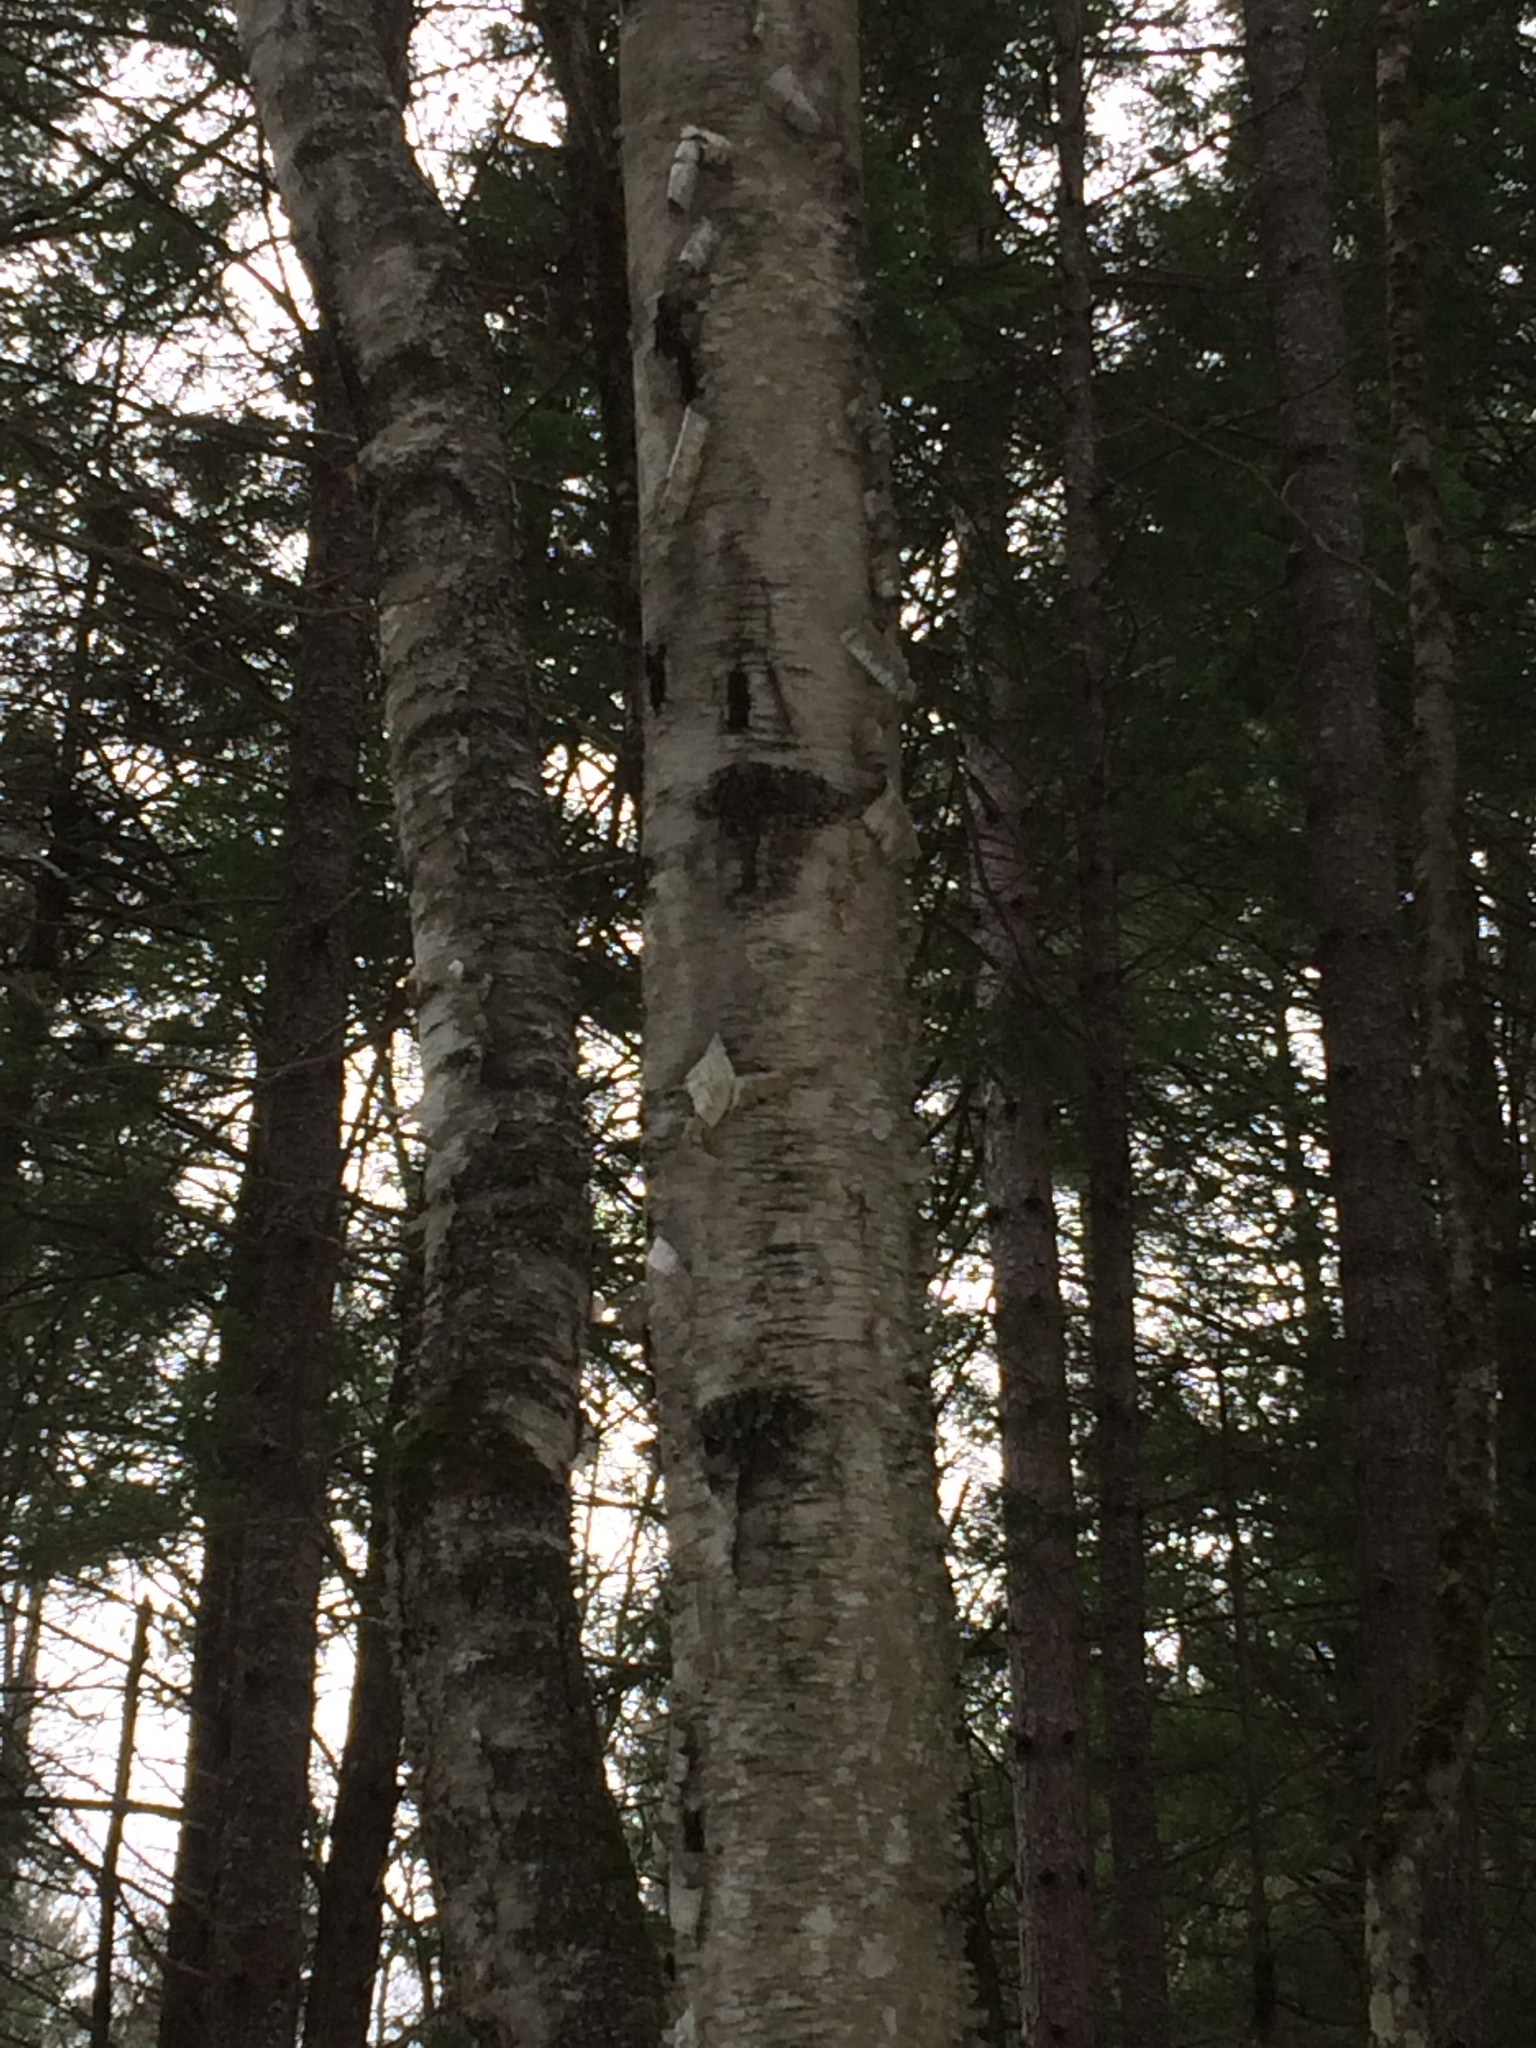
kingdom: Plantae
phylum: Tracheophyta
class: Magnoliopsida
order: Fagales
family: Betulaceae
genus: Betula
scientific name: Betula papyrifera
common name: Paper birch
